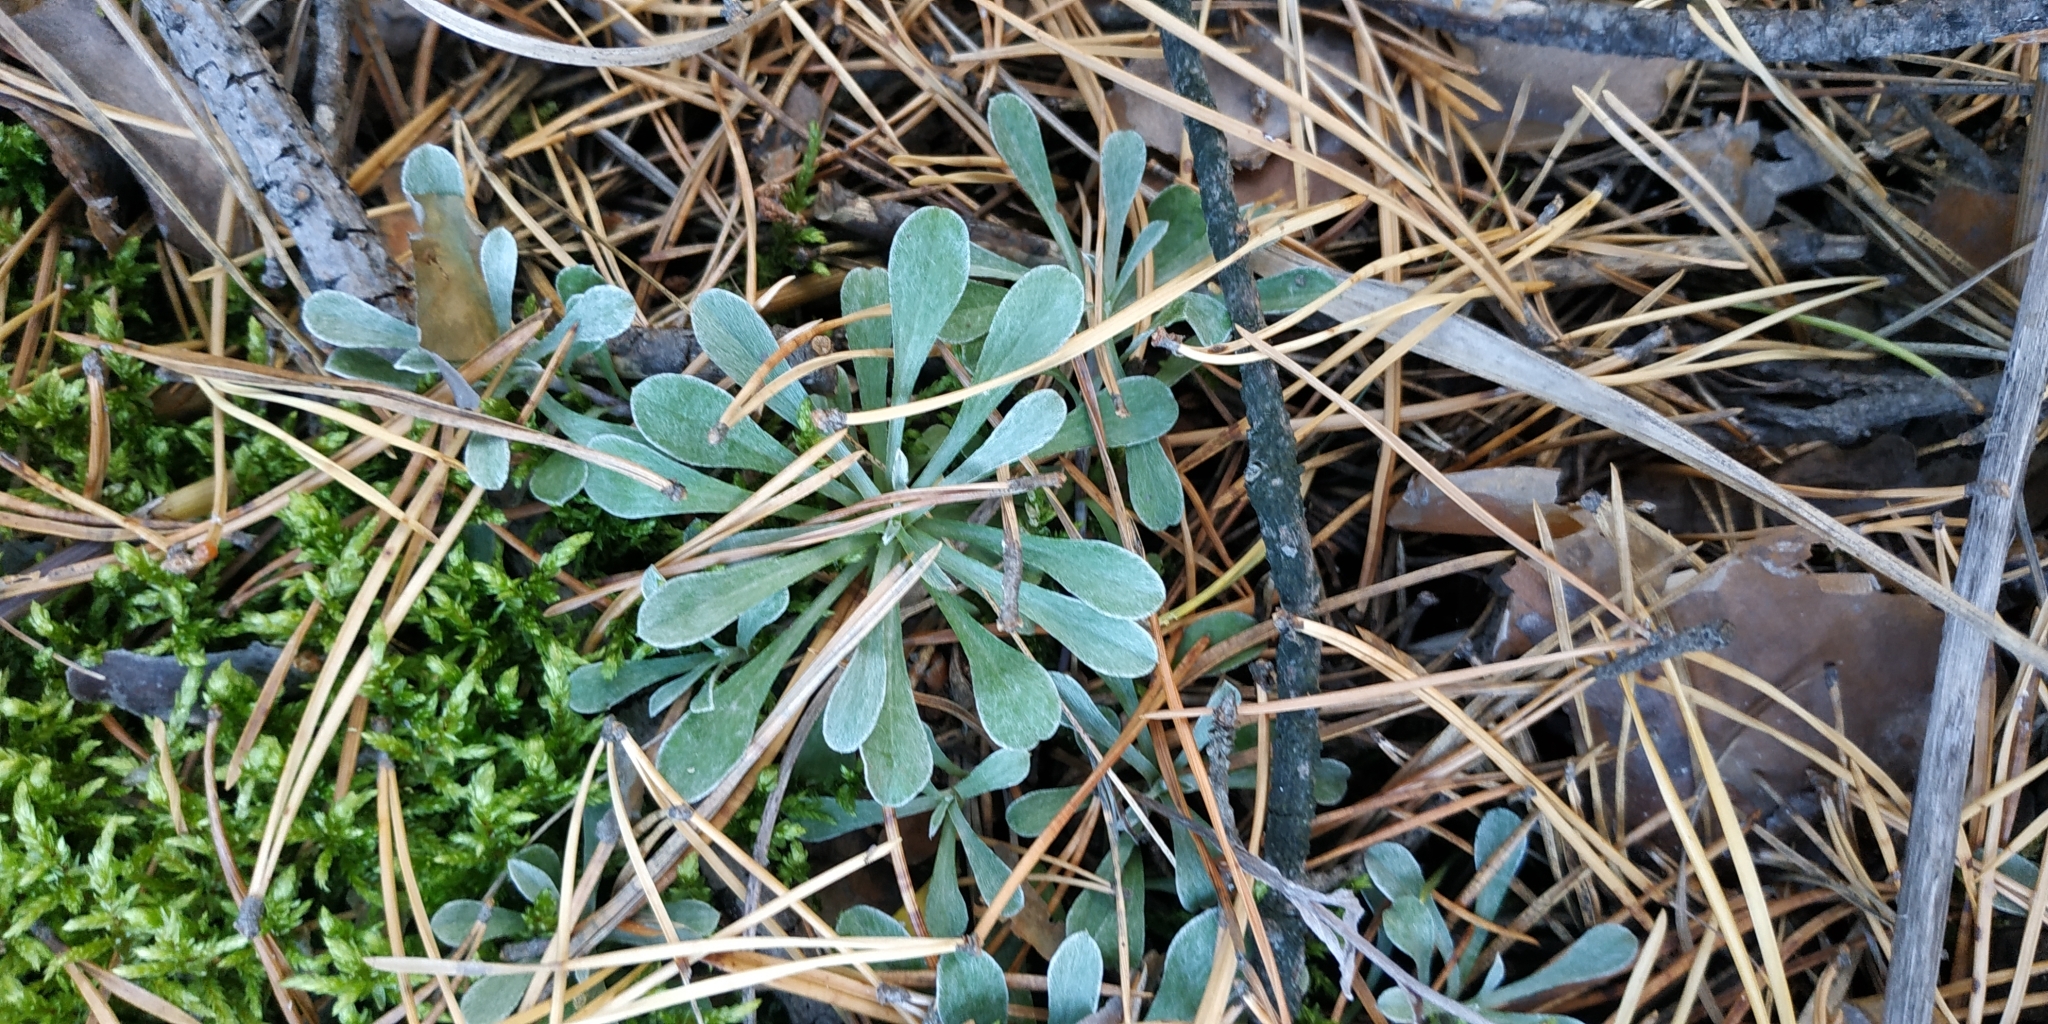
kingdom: Plantae
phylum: Tracheophyta
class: Magnoliopsida
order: Asterales
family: Asteraceae
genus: Antennaria
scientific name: Antennaria dioica
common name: Mountain everlasting
